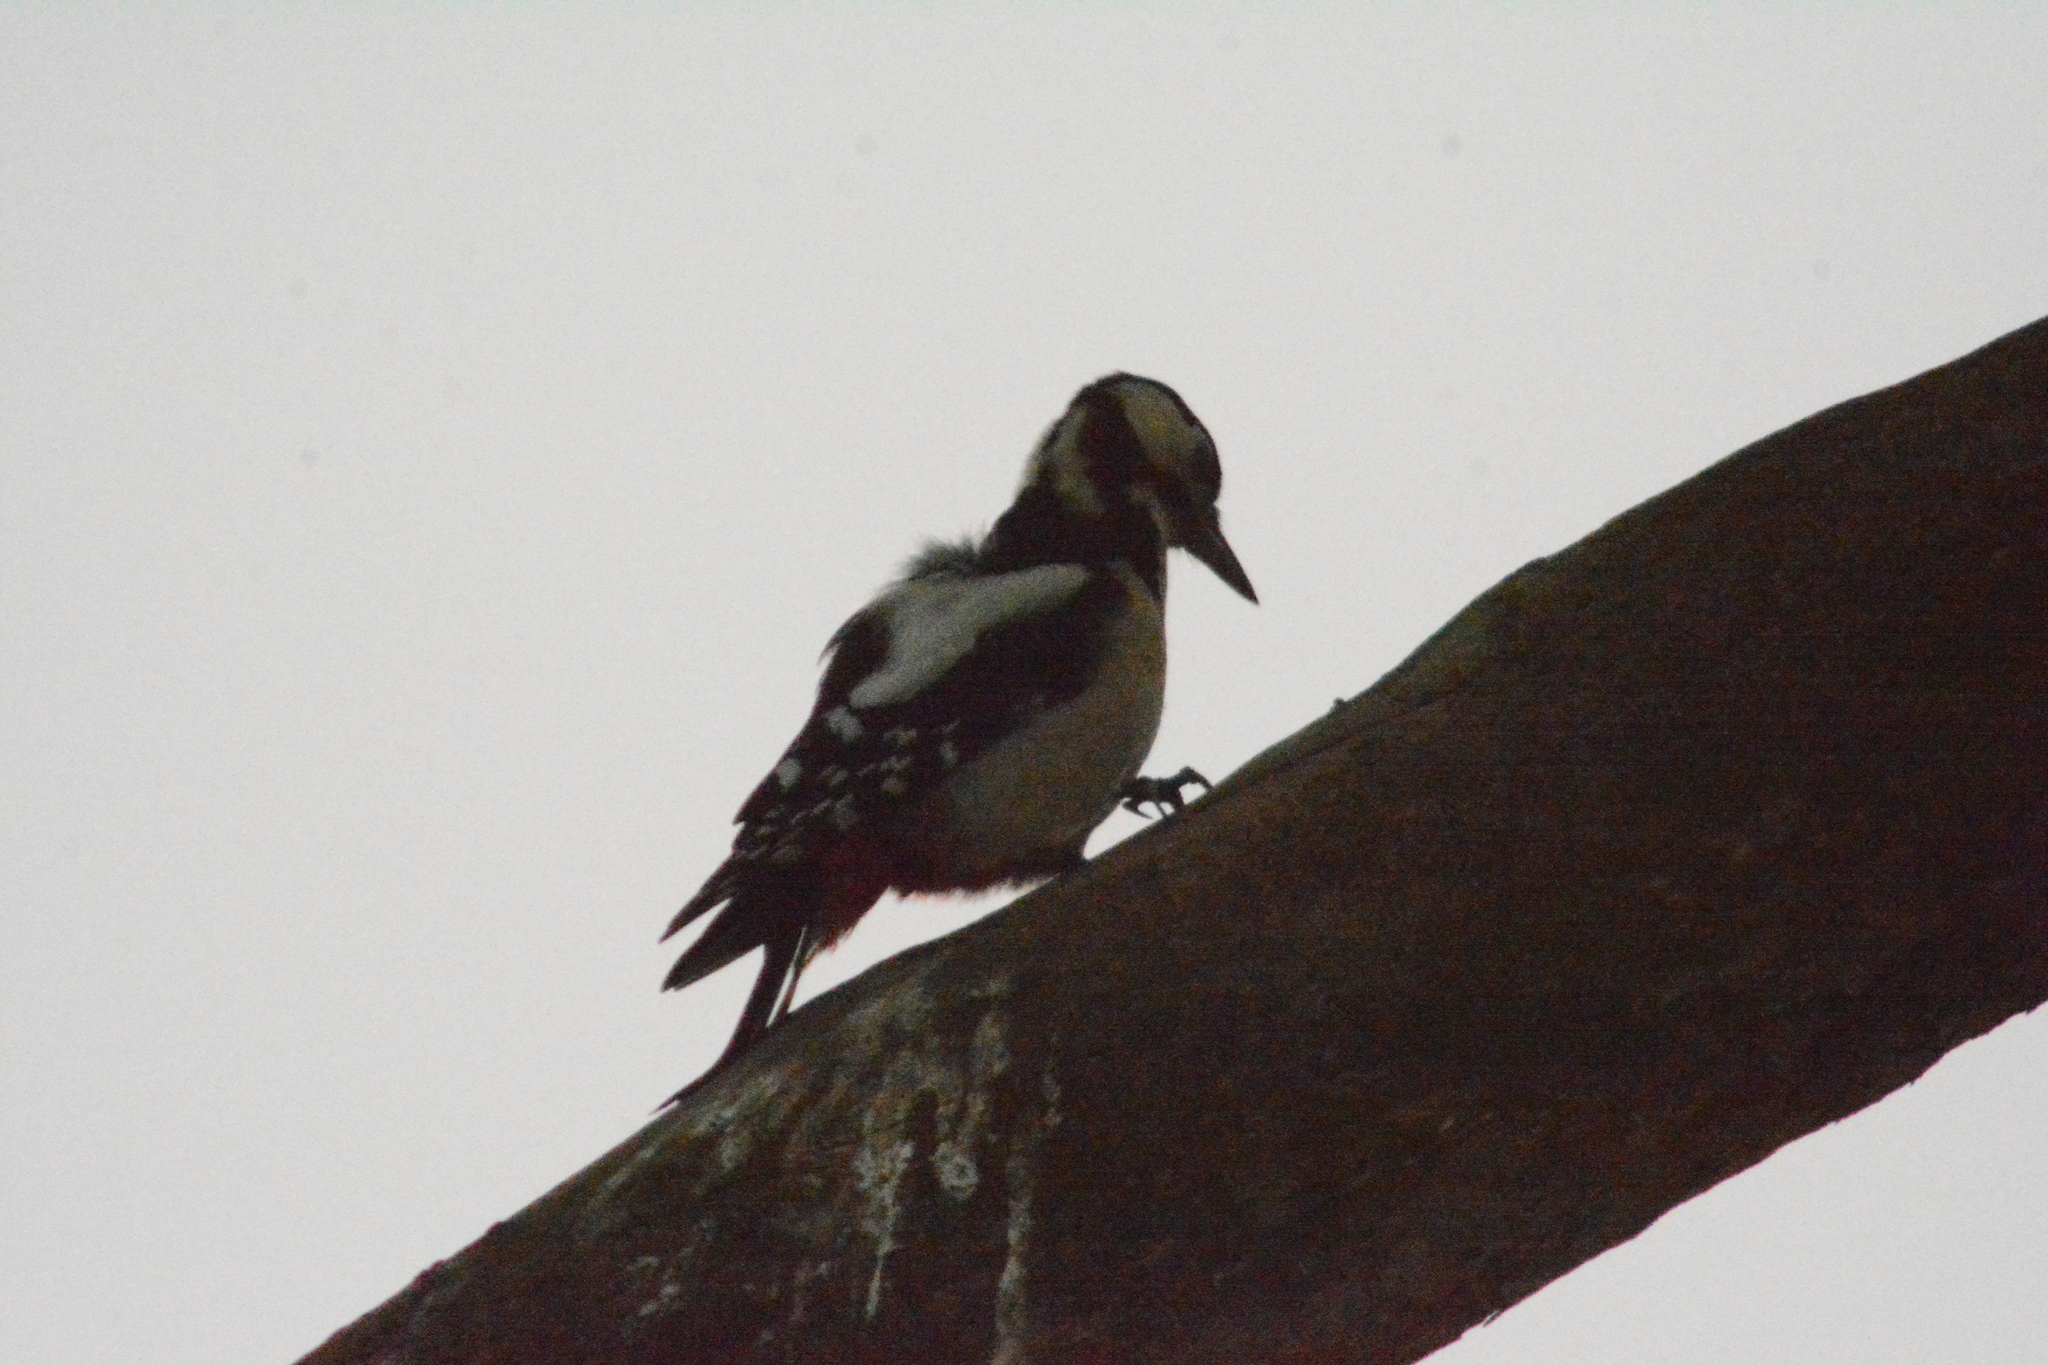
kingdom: Animalia
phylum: Chordata
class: Aves
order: Piciformes
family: Picidae
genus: Dendrocopos
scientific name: Dendrocopos major
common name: Great spotted woodpecker
